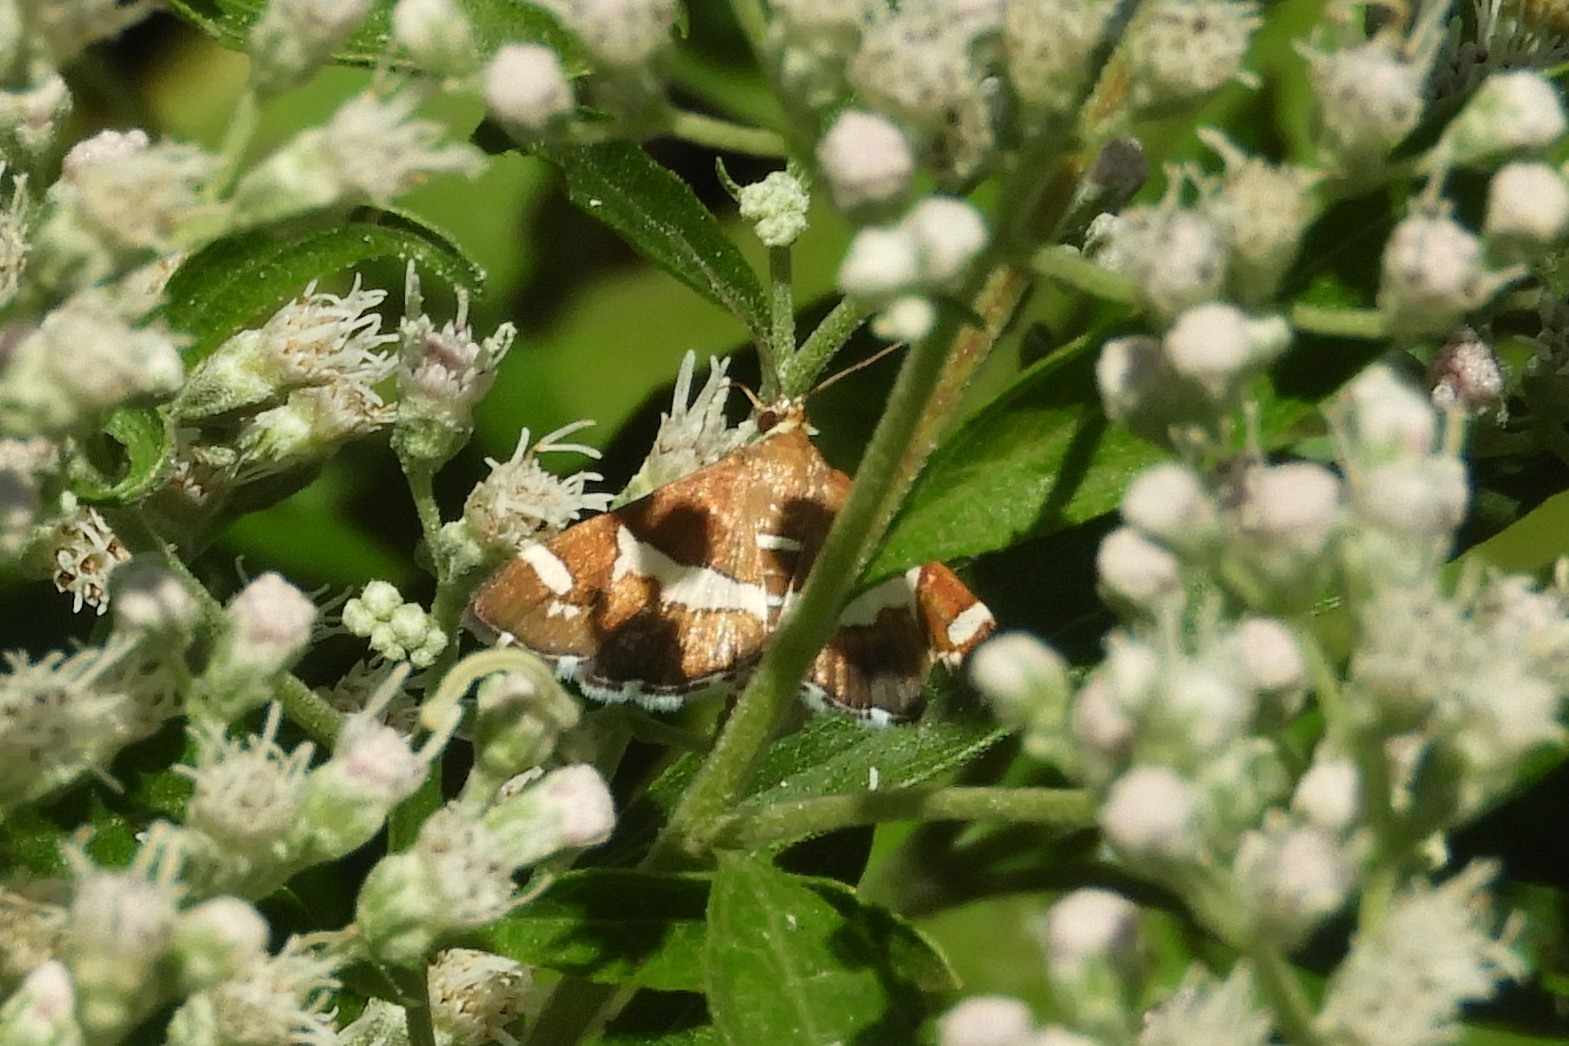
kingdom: Animalia
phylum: Arthropoda
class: Insecta
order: Lepidoptera
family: Crambidae
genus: Spoladea
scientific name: Spoladea recurvalis
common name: Beet webworm moth
